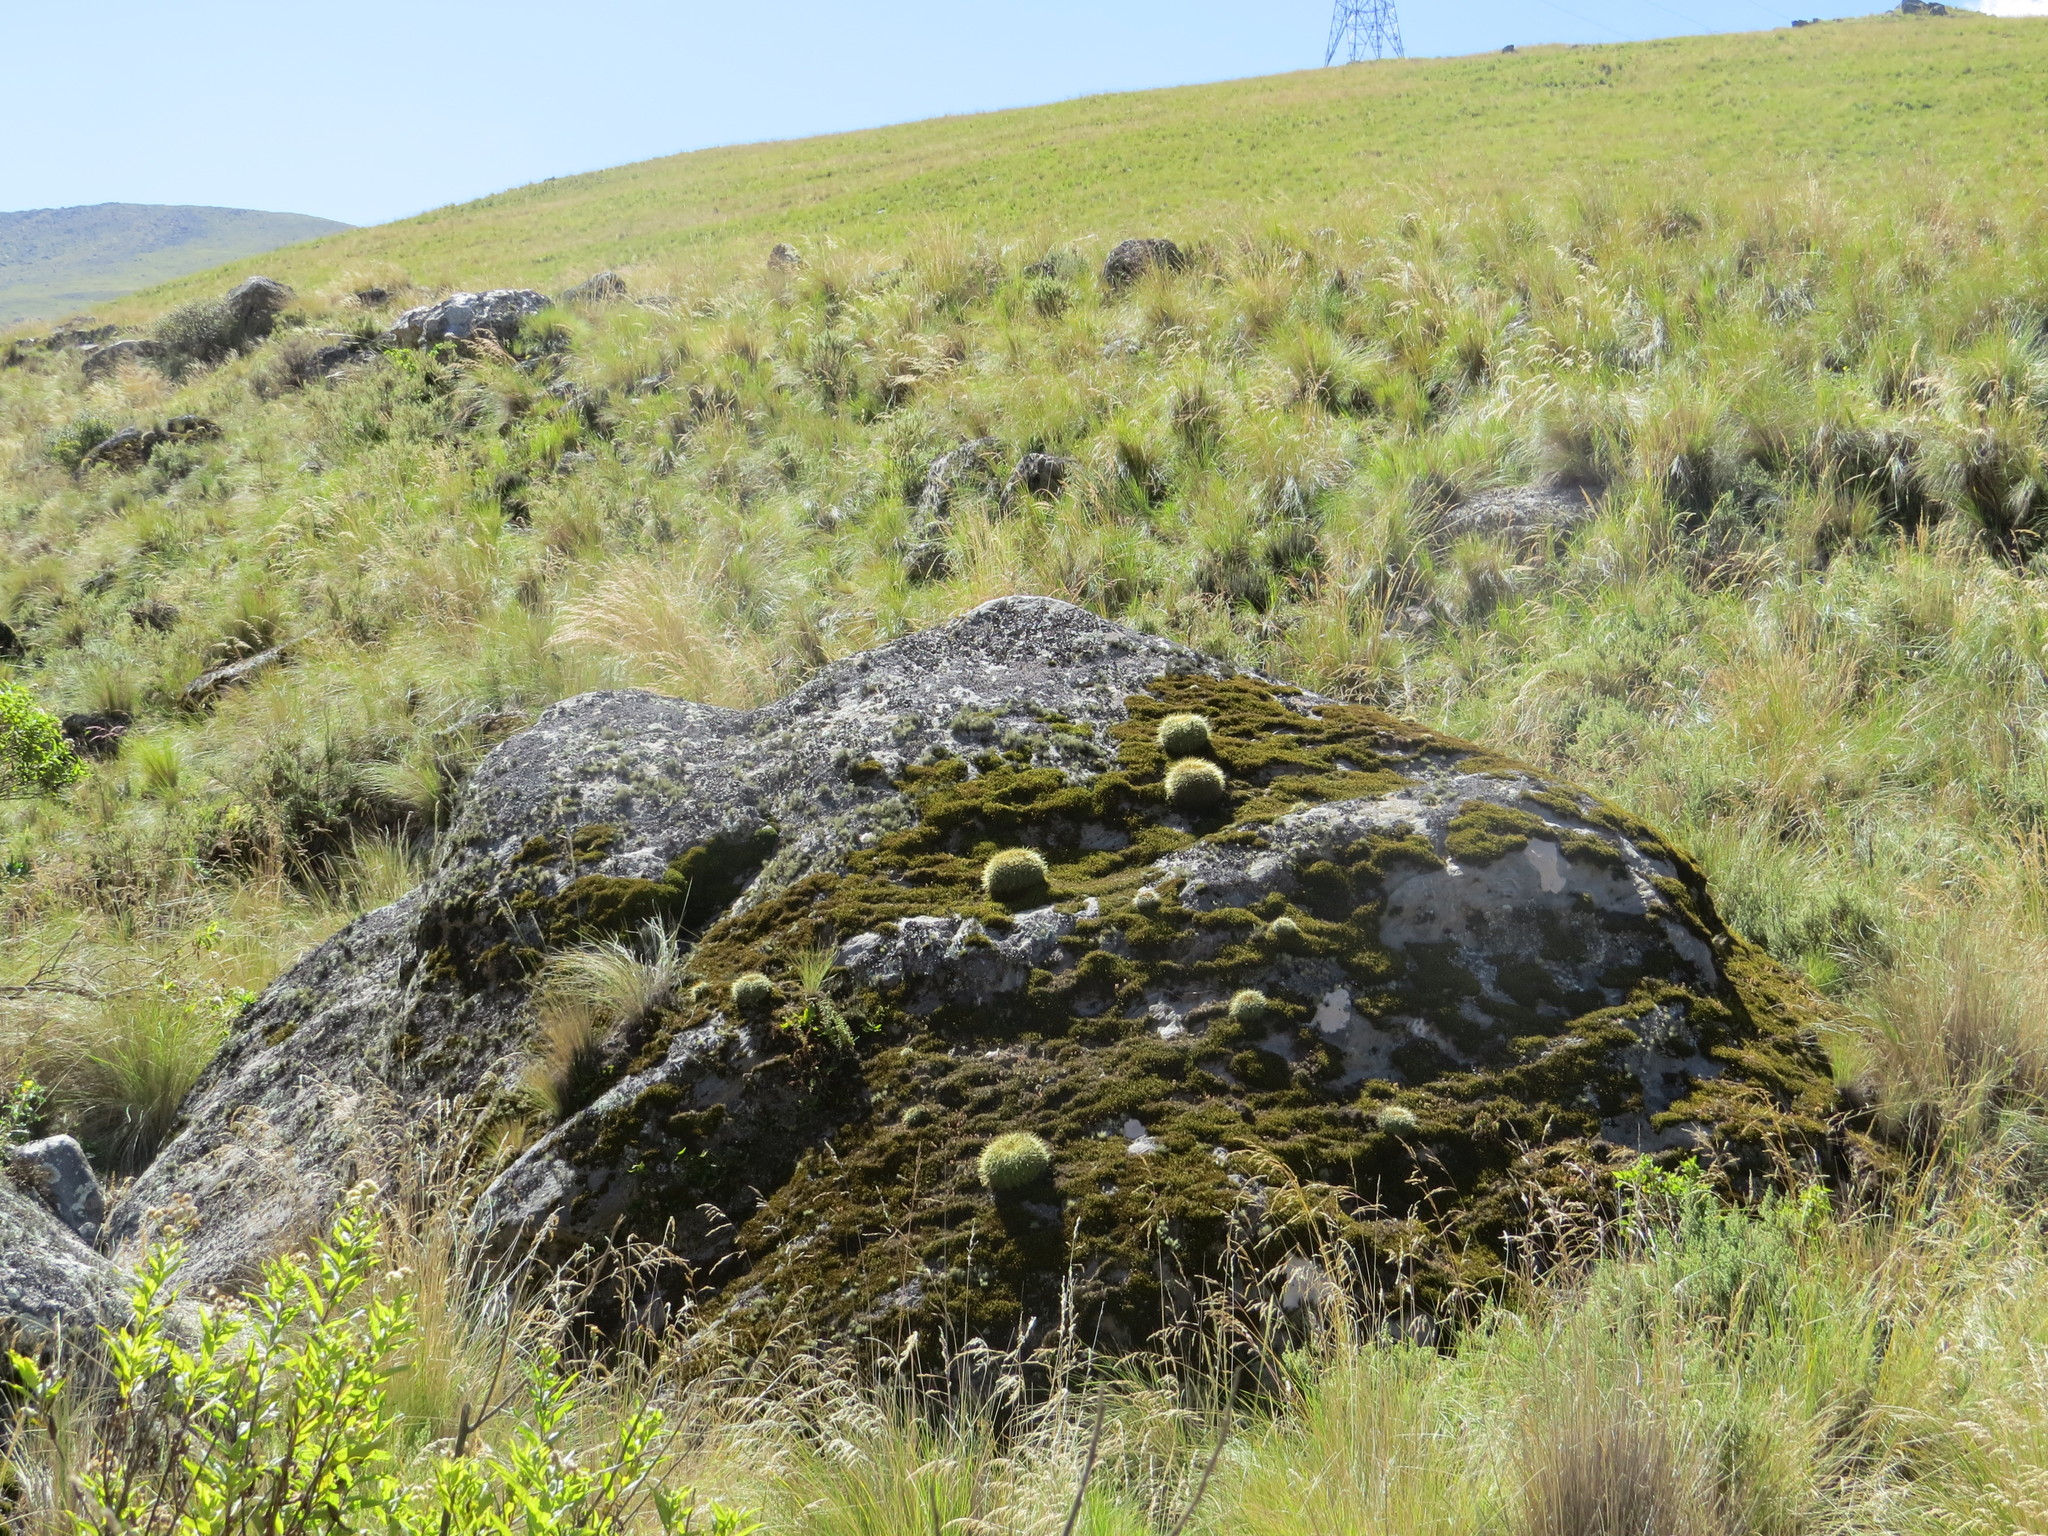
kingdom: Plantae
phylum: Tracheophyta
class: Magnoliopsida
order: Caryophyllales
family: Cactaceae
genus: Soehrensia
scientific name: Soehrensia bruchii
